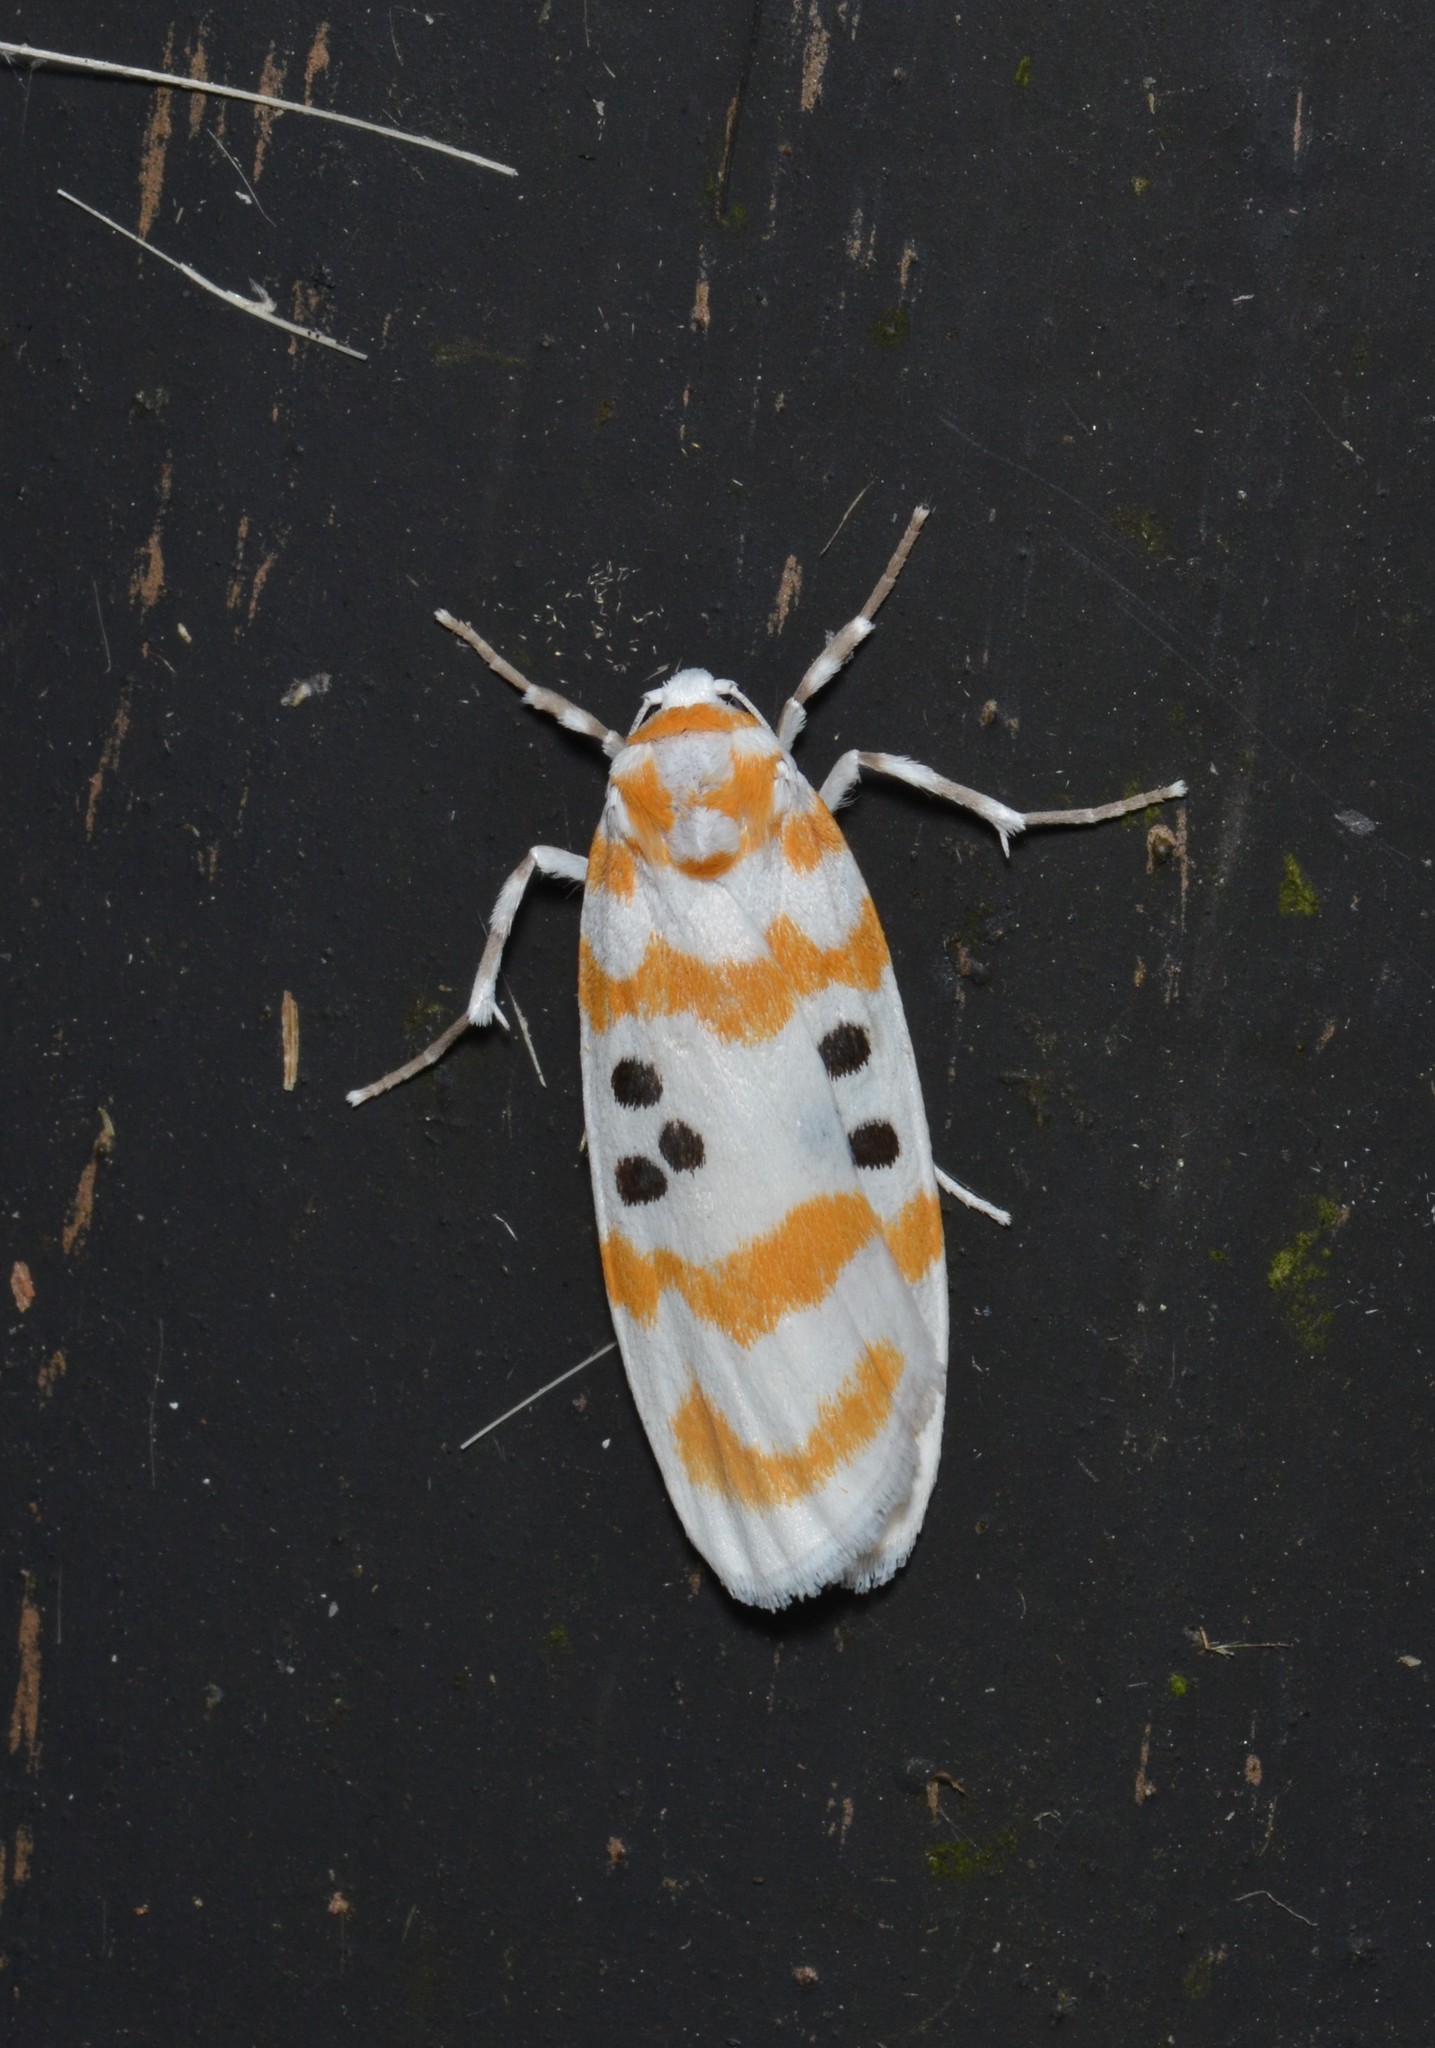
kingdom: Animalia
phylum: Arthropoda
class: Insecta
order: Lepidoptera
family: Erebidae
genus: Cyana
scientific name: Cyana moelleri
